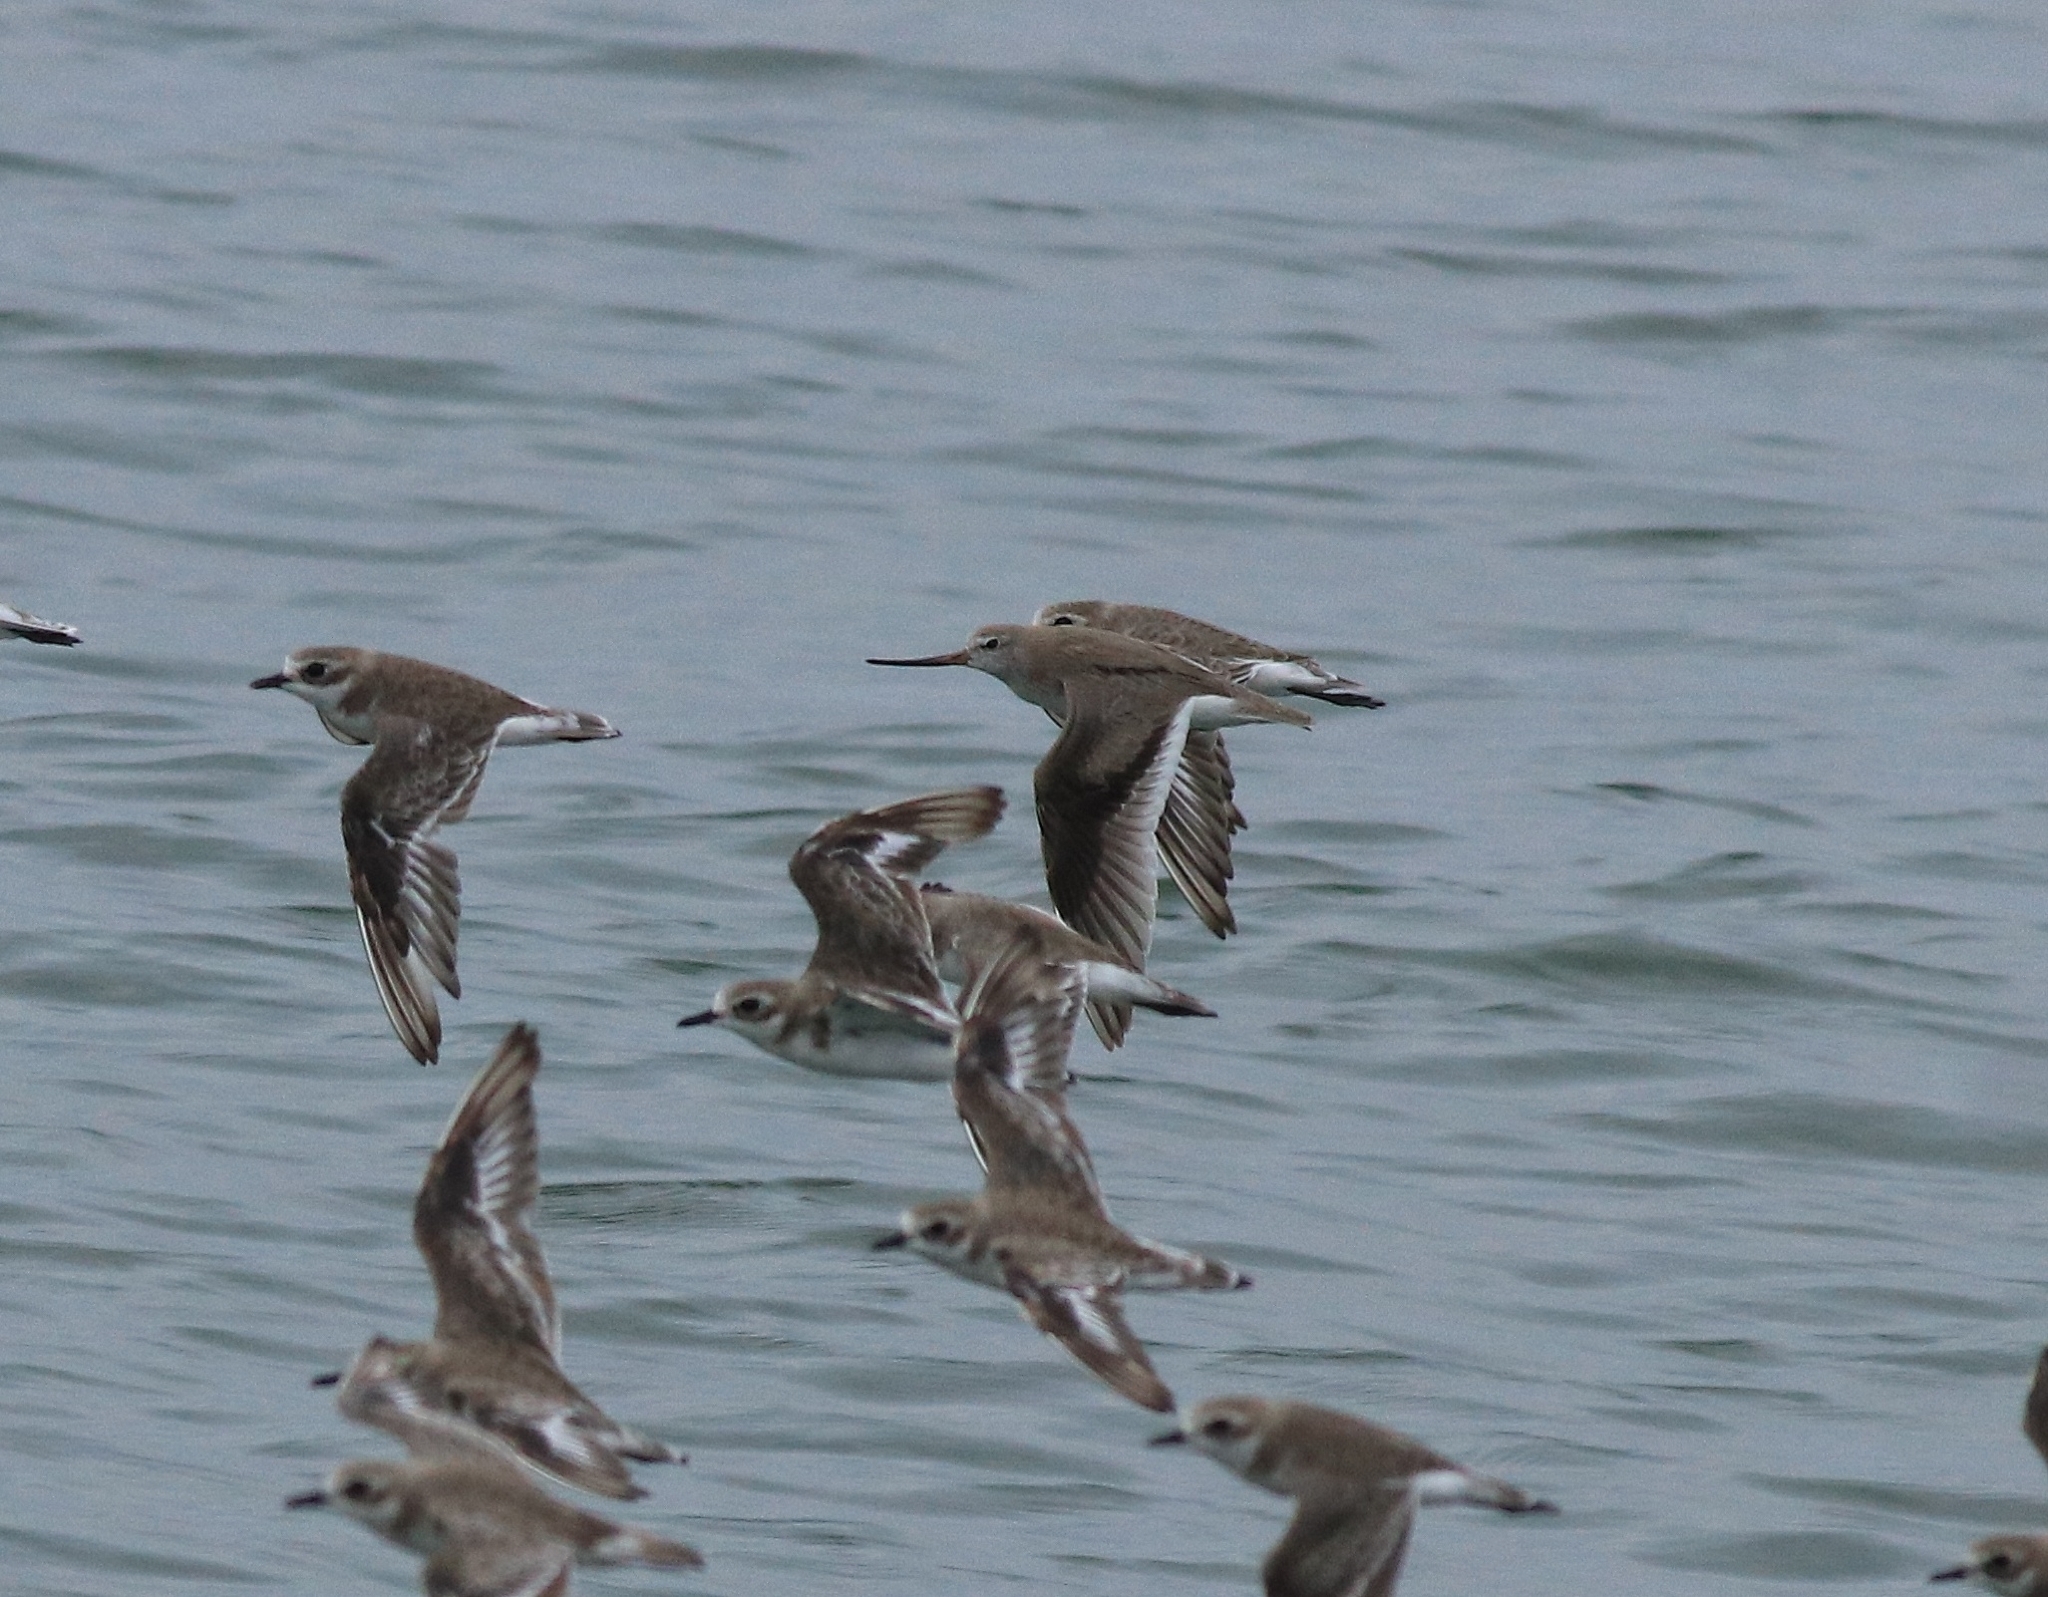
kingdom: Animalia
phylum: Chordata
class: Aves
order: Charadriiformes
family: Scolopacidae
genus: Xenus
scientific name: Xenus cinereus
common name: Terek sandpiper
